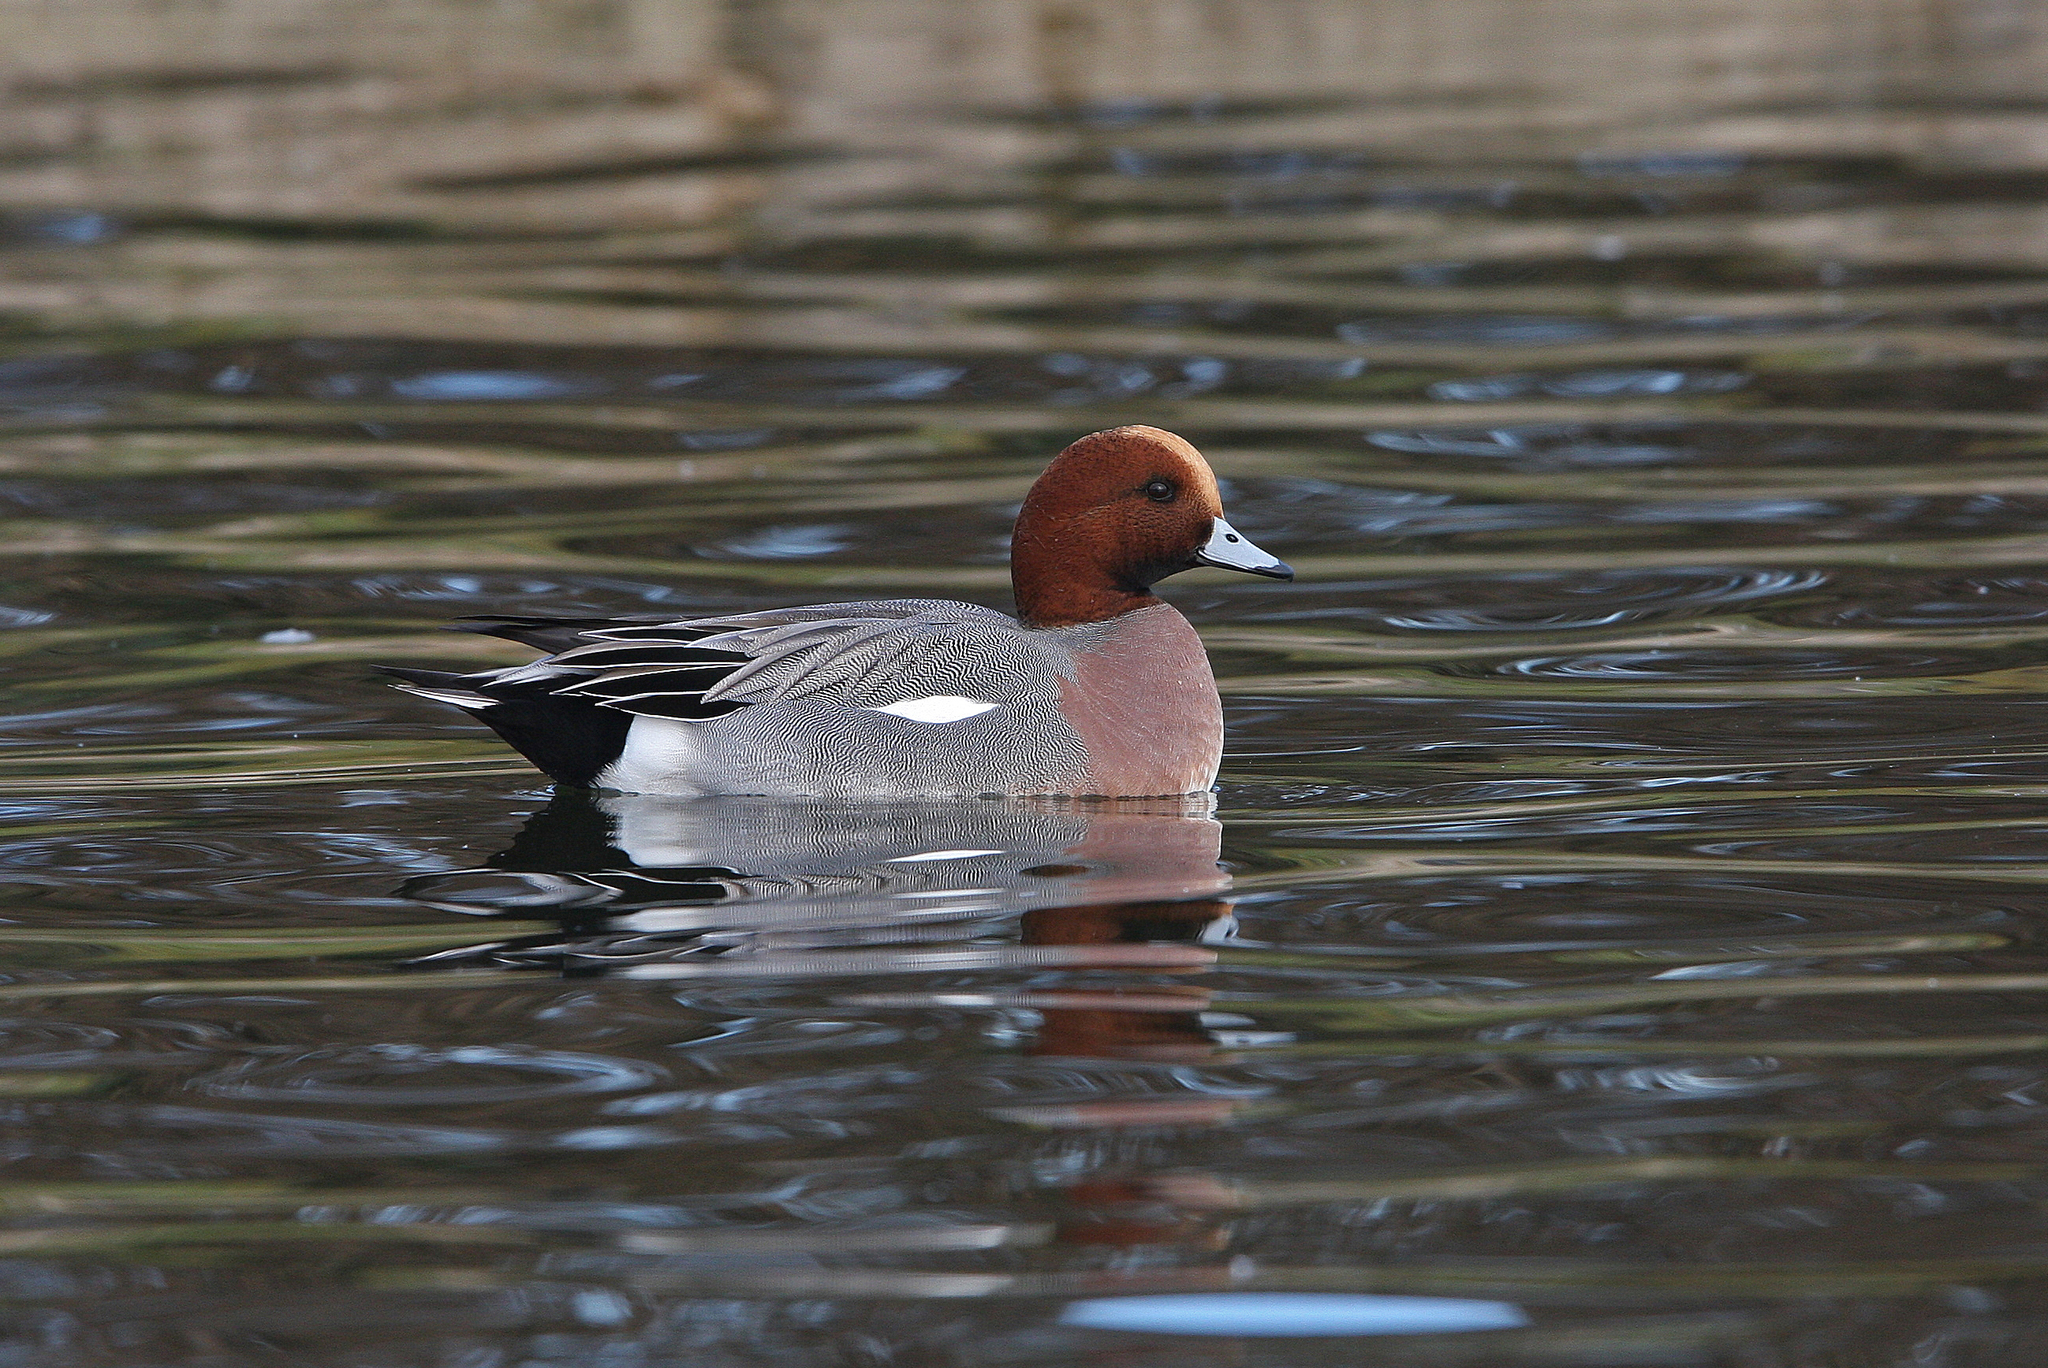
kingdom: Animalia
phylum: Chordata
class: Aves
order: Anseriformes
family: Anatidae
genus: Mareca
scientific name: Mareca penelope
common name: Eurasian wigeon
